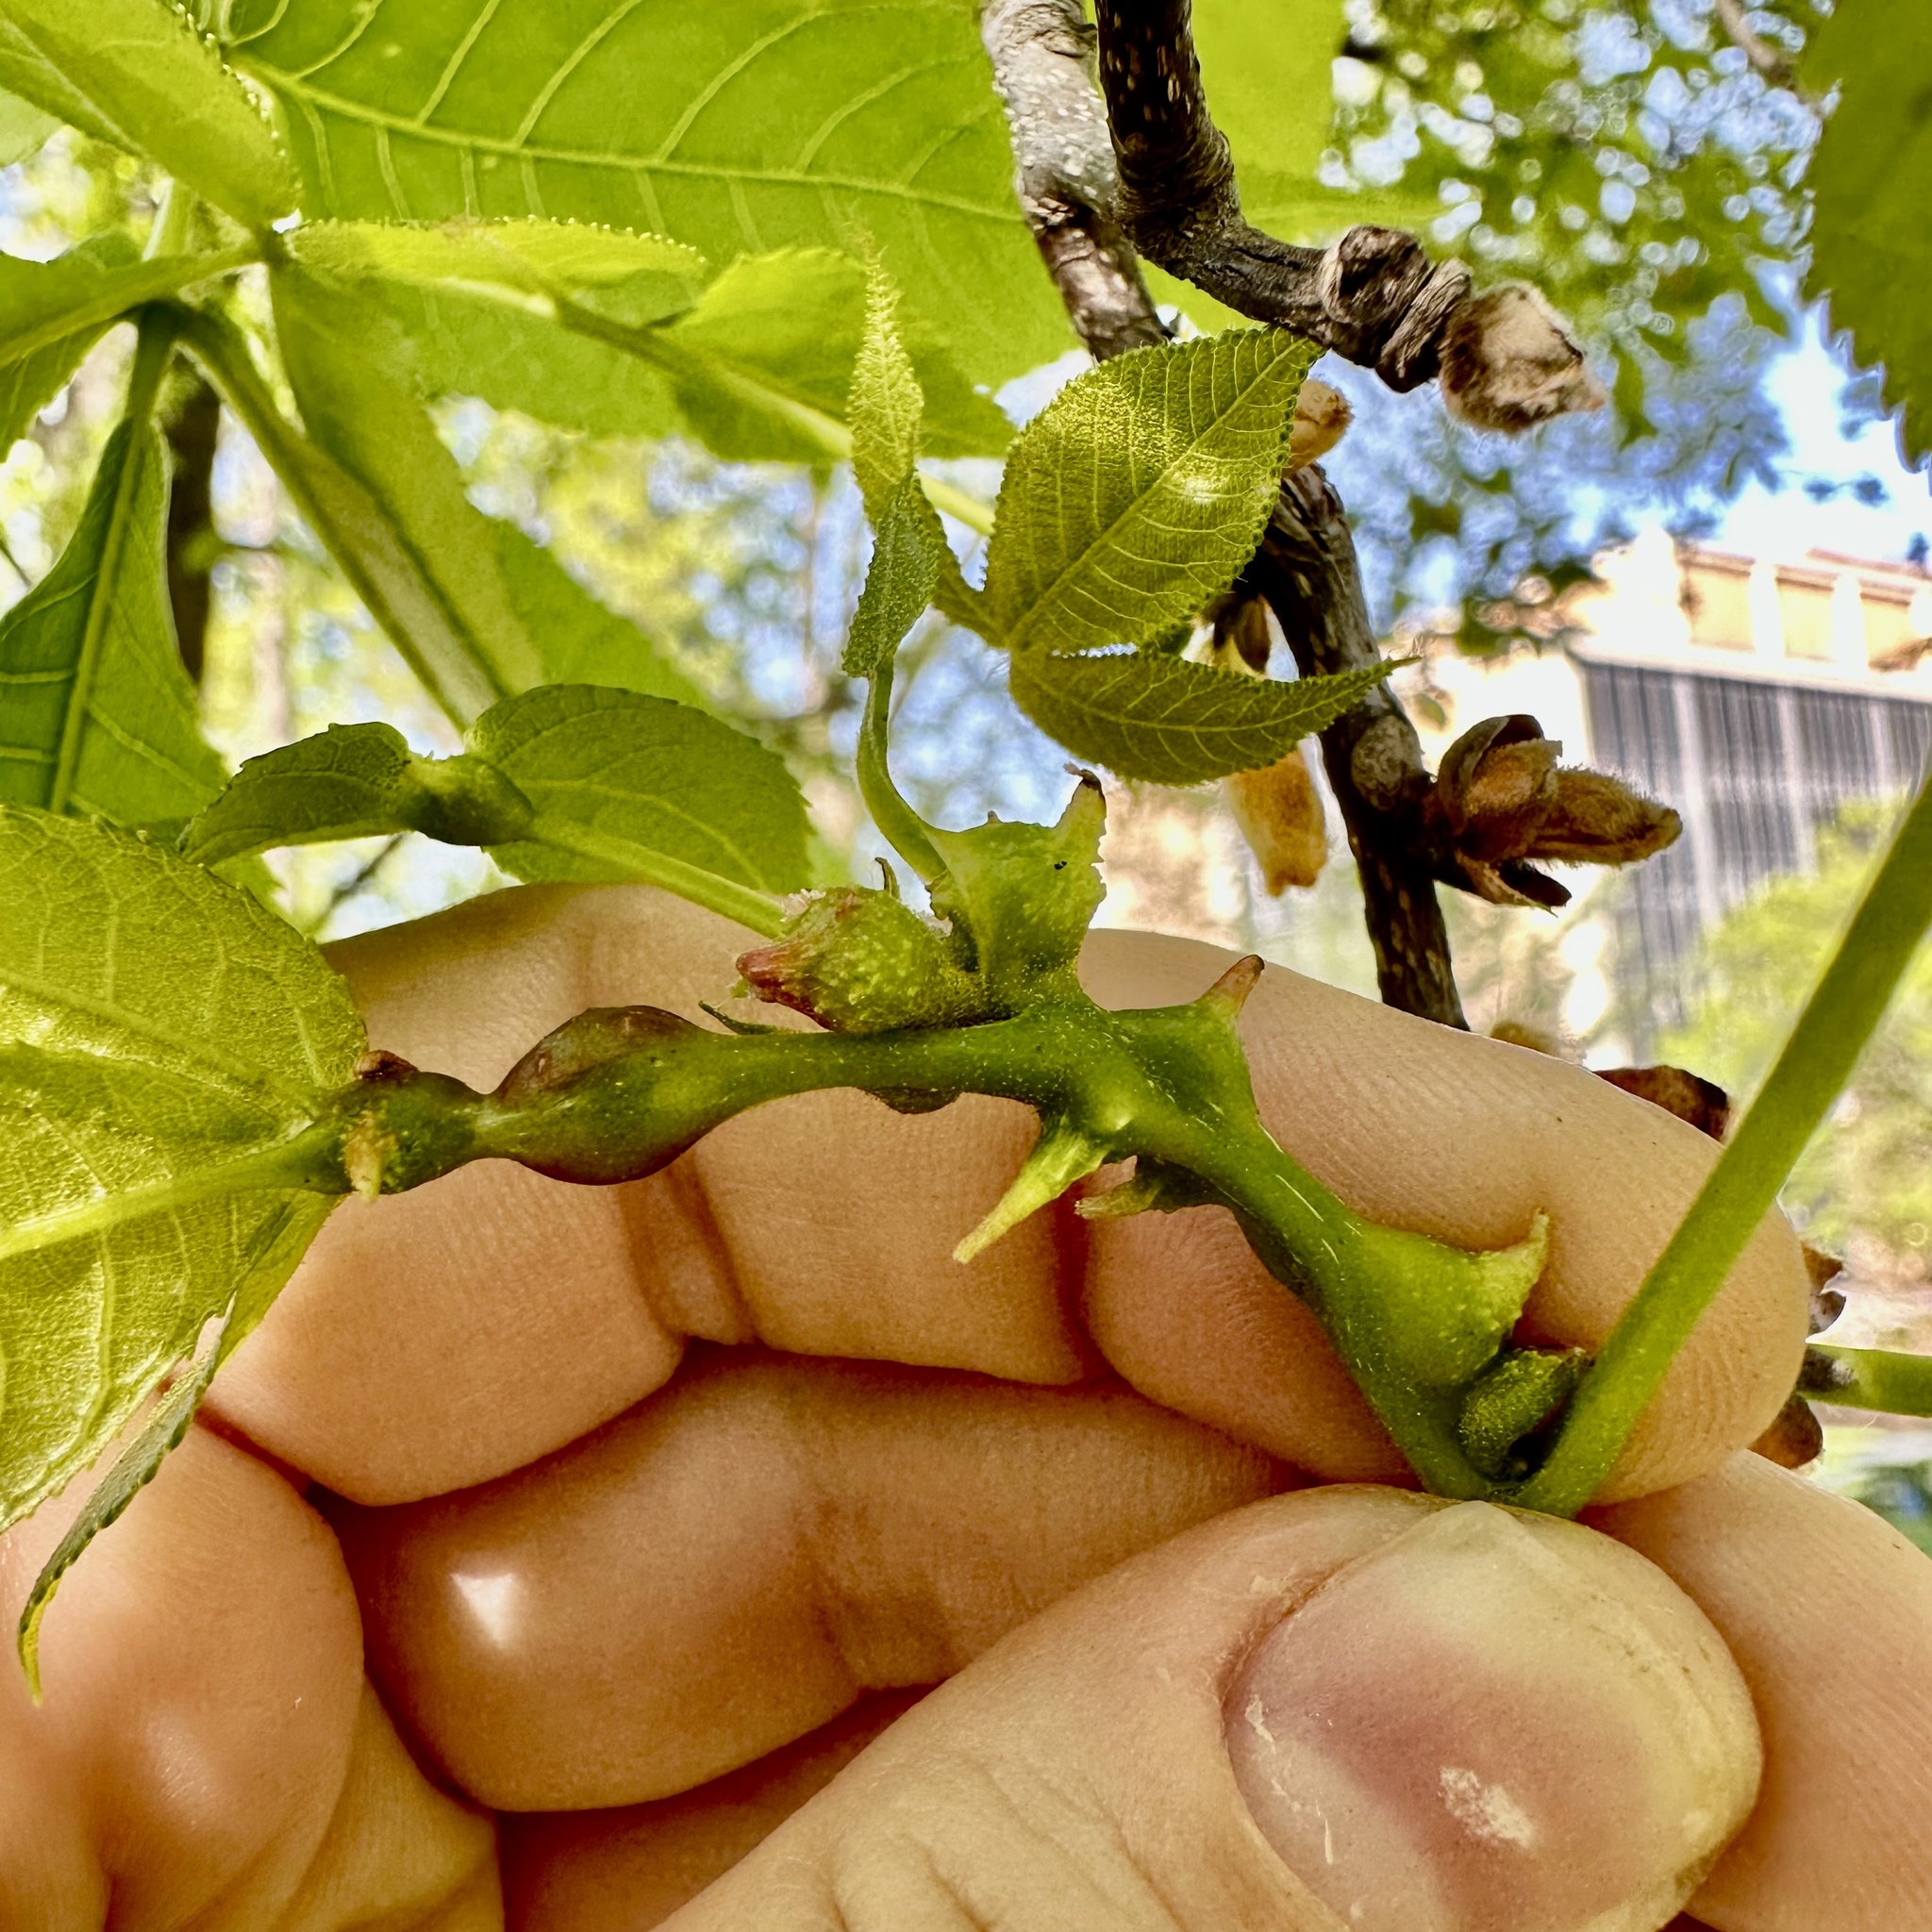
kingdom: Animalia
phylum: Arthropoda
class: Insecta
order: Hemiptera
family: Phylloxeridae
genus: Phylloxera
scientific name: Phylloxera spinosa
